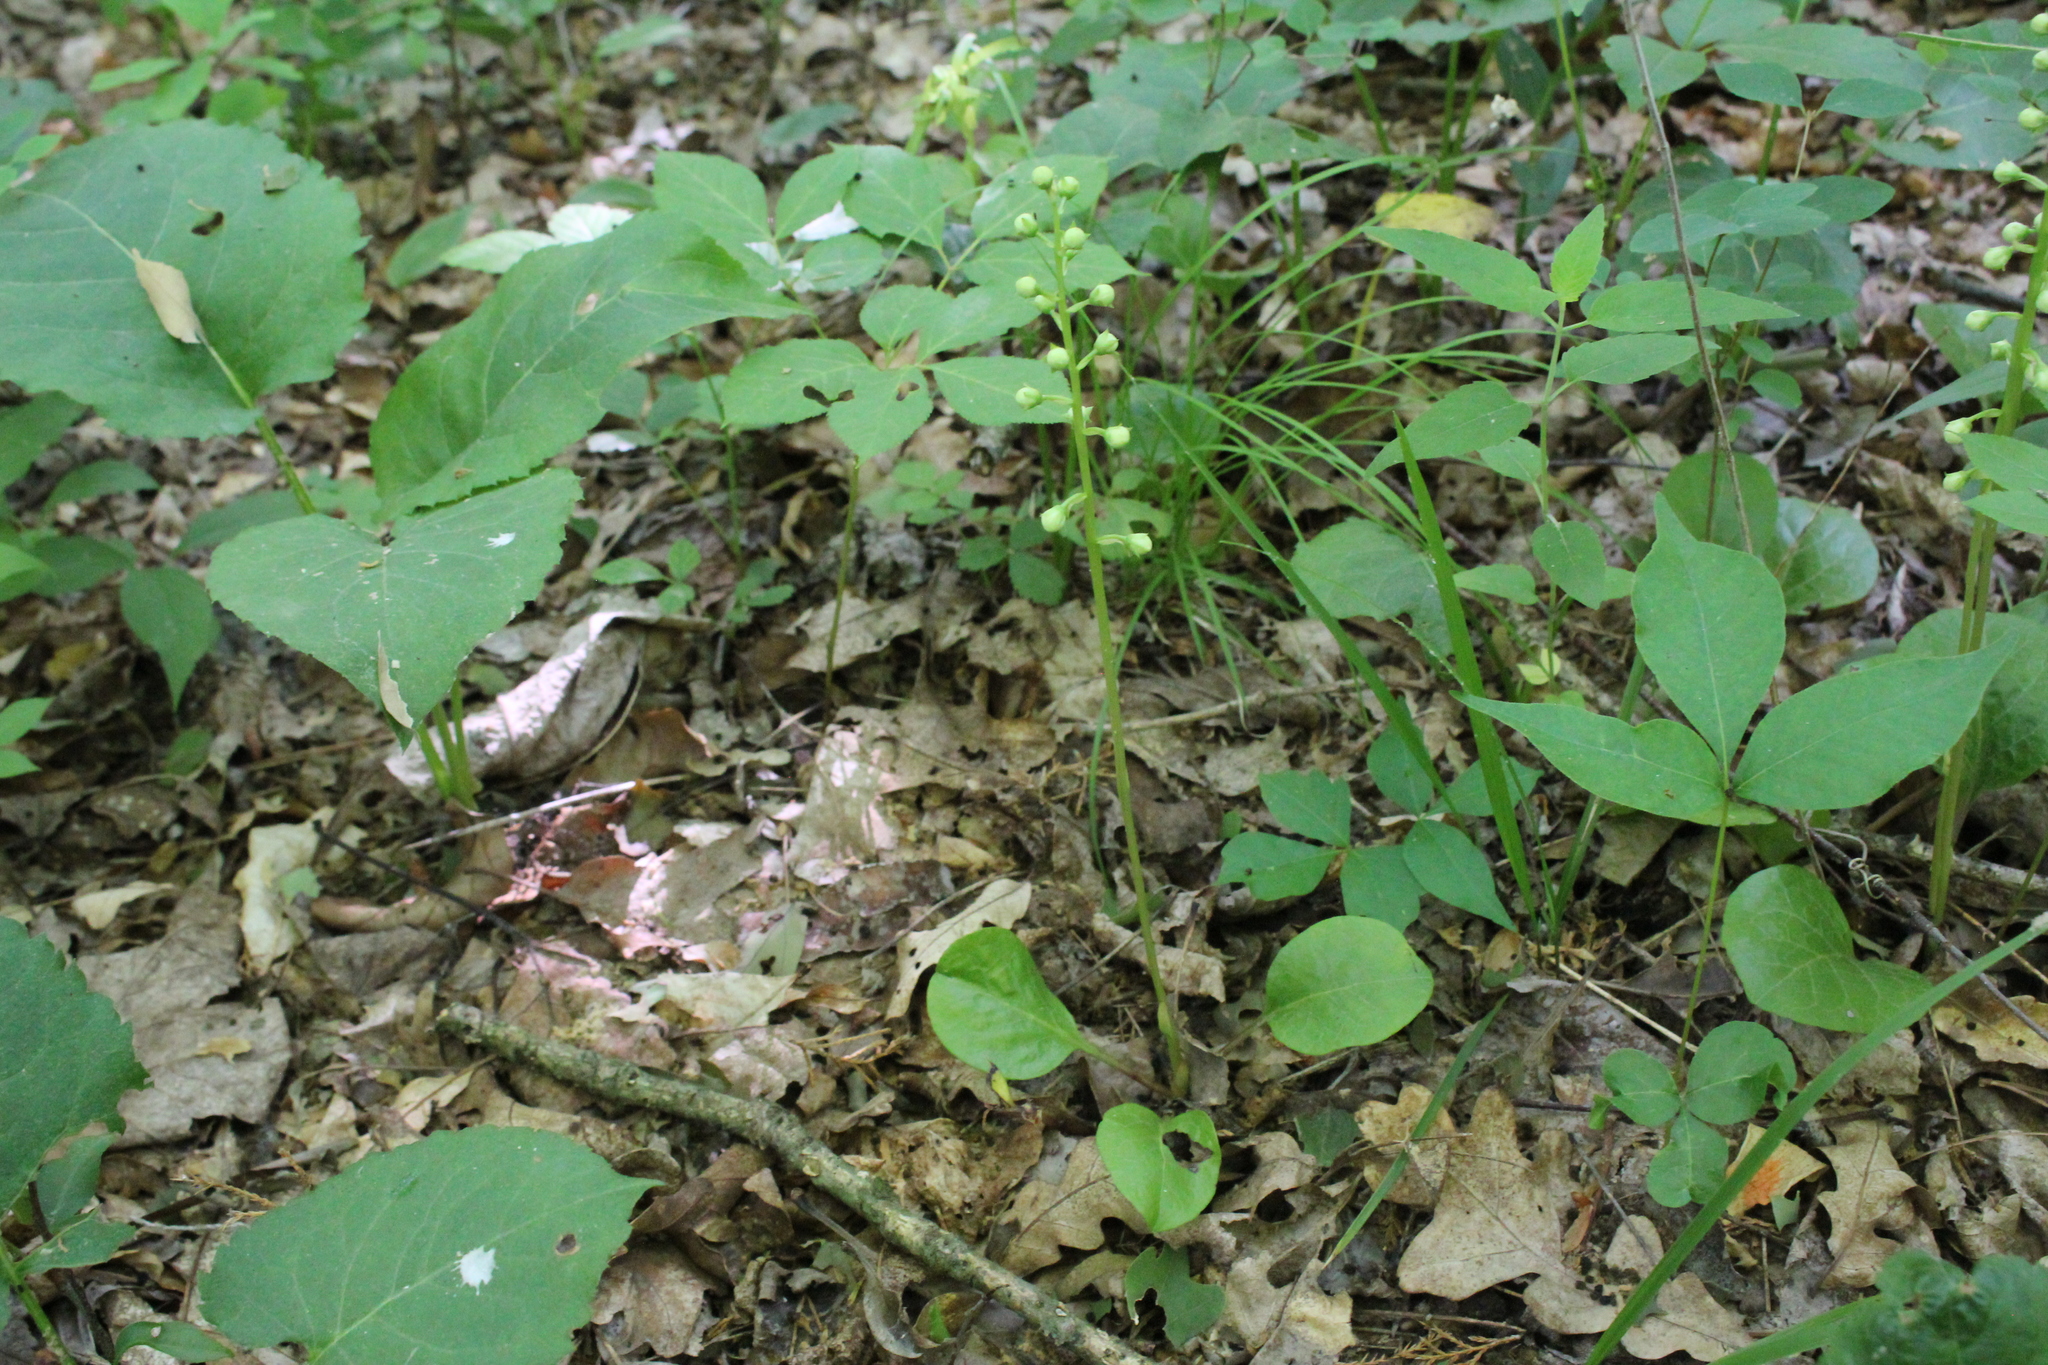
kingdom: Plantae
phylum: Tracheophyta
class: Magnoliopsida
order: Ericales
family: Ericaceae
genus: Pyrola
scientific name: Pyrola elliptica
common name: Shinleaf
